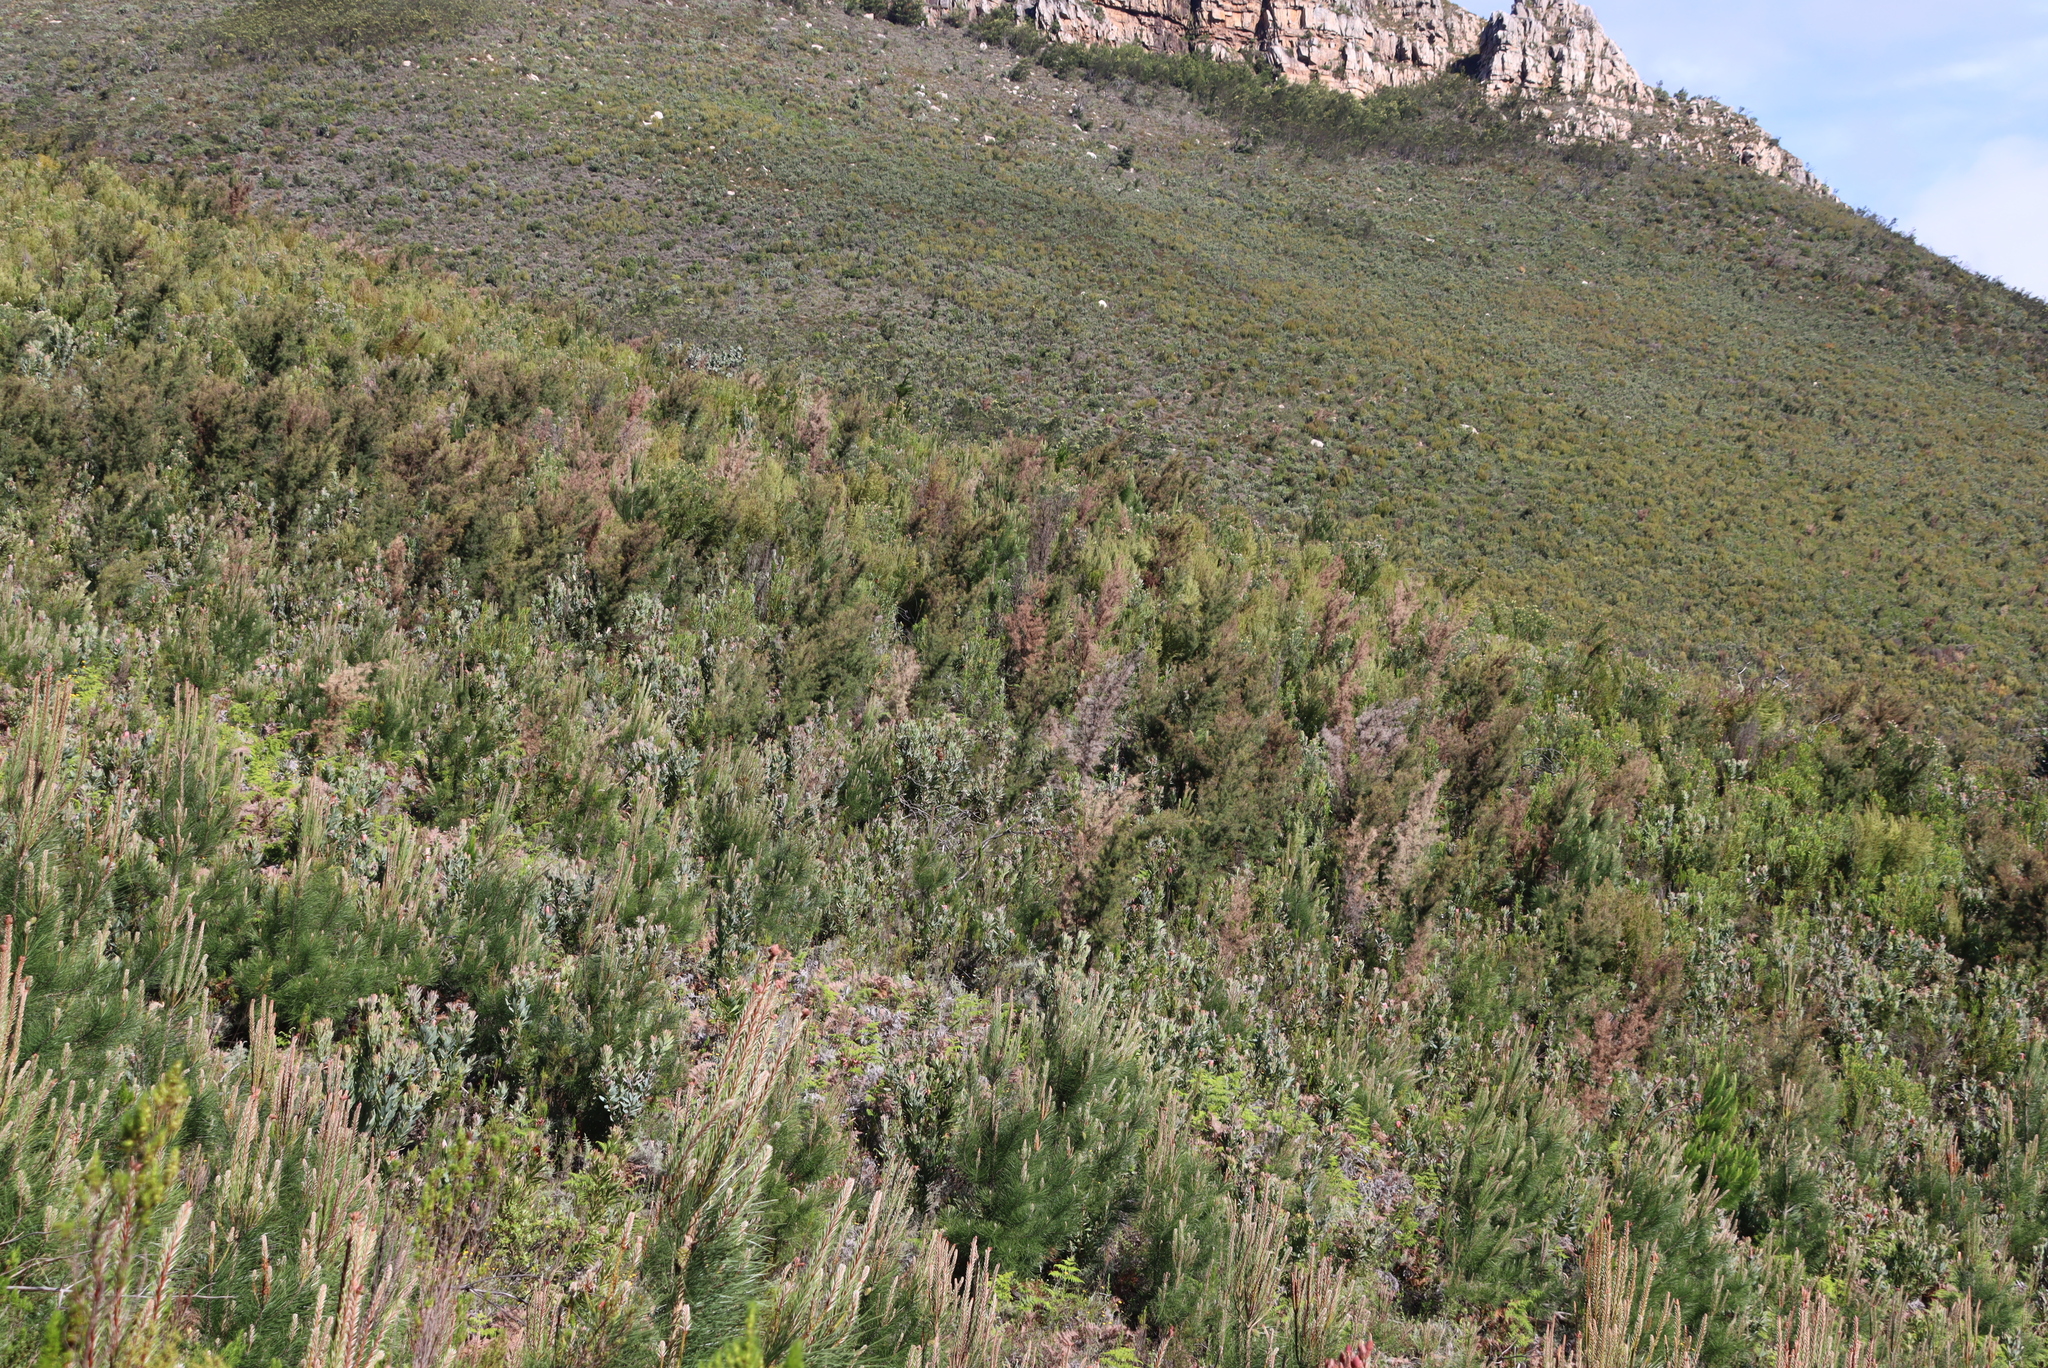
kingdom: Plantae
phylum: Tracheophyta
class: Magnoliopsida
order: Proteales
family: Proteaceae
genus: Hakea
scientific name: Hakea sericea
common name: Needle bush
